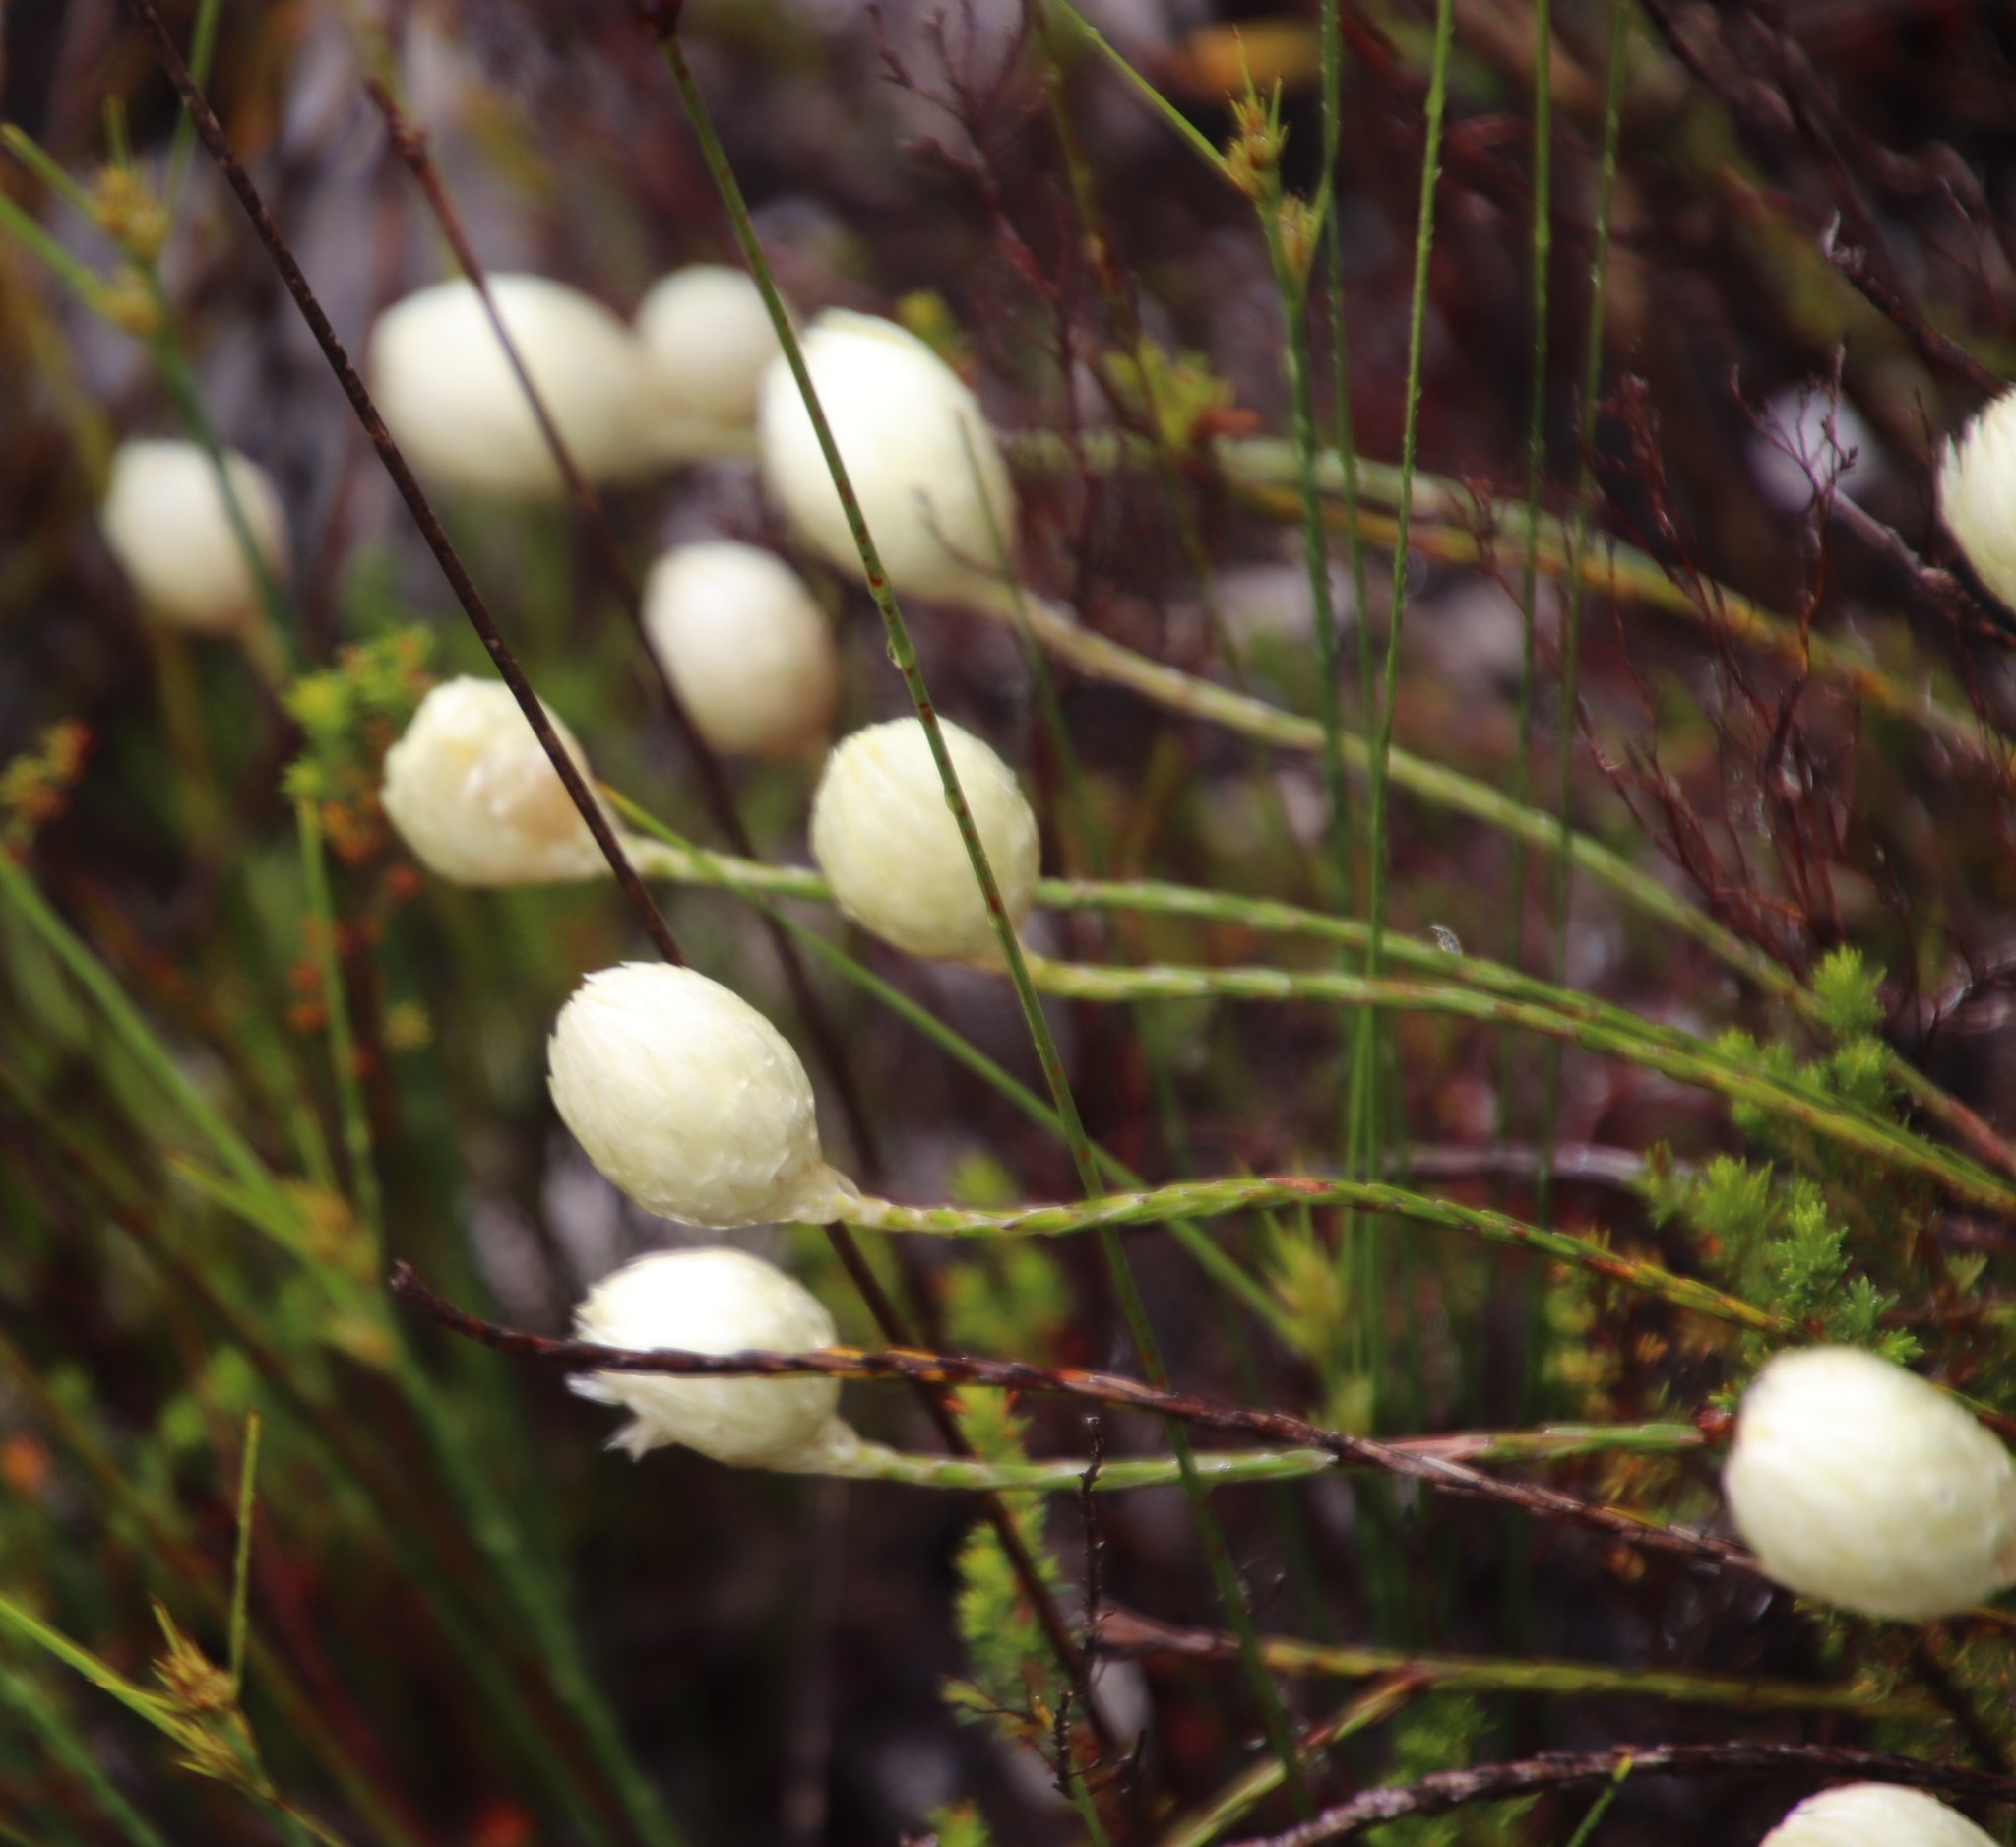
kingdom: Plantae
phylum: Tracheophyta
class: Magnoliopsida
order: Asterales
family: Asteraceae
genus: Edmondia
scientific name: Edmondia sesamoides
